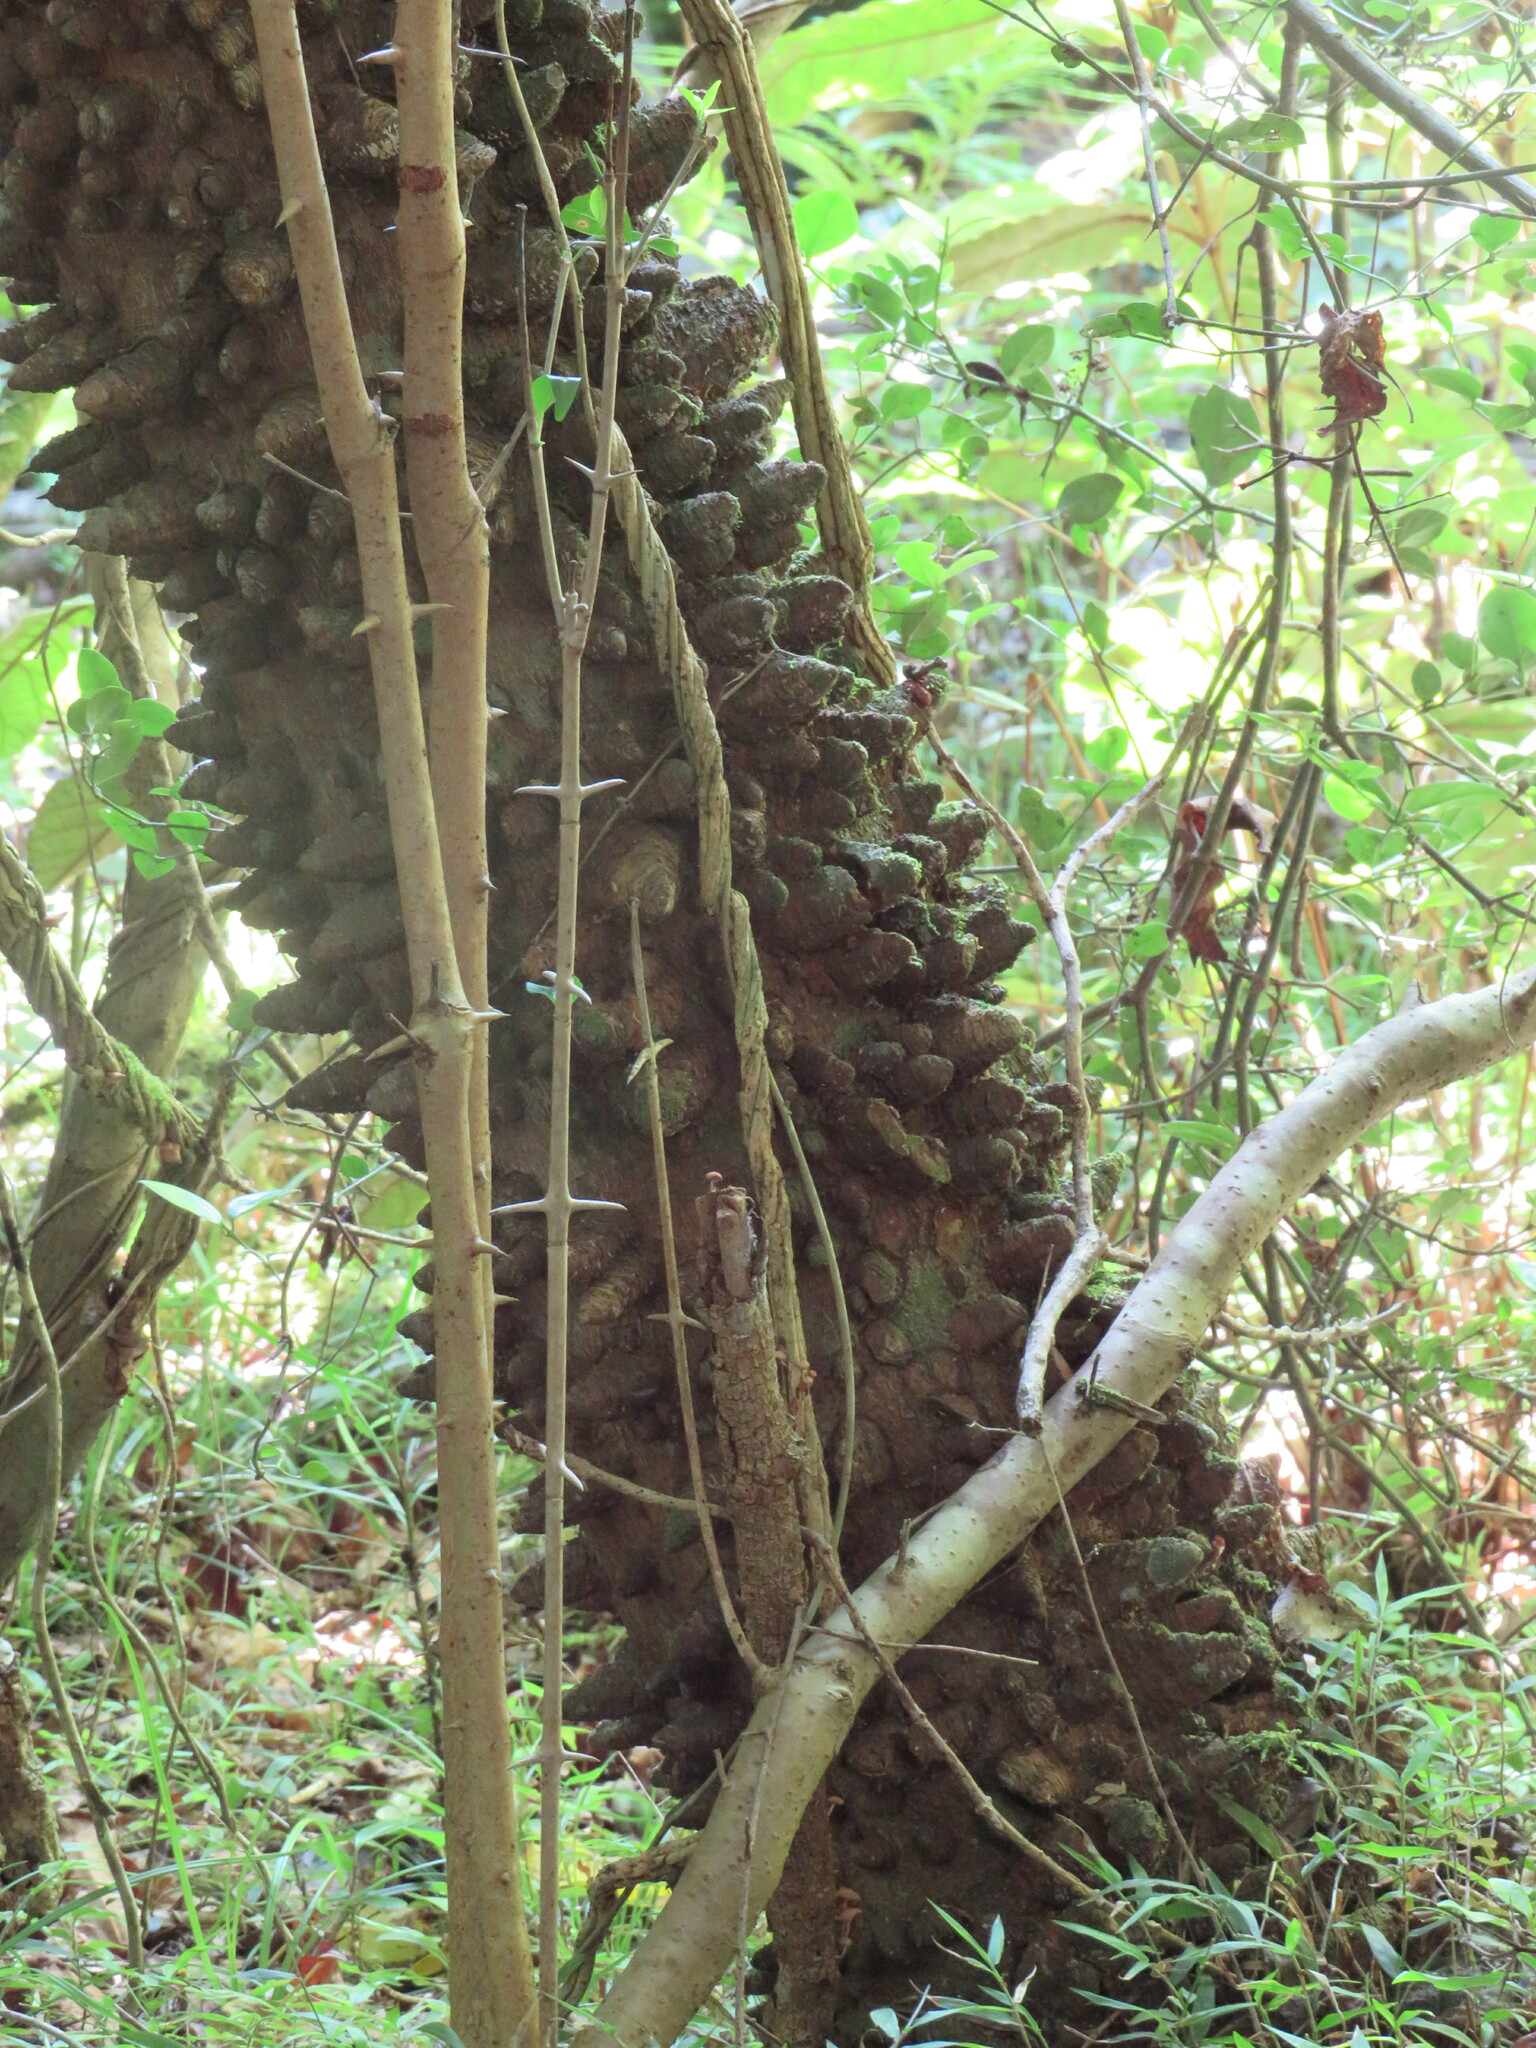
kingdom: Plantae
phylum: Tracheophyta
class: Magnoliopsida
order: Sapindales
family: Rutaceae
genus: Zanthoxylum
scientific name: Zanthoxylum davyi
